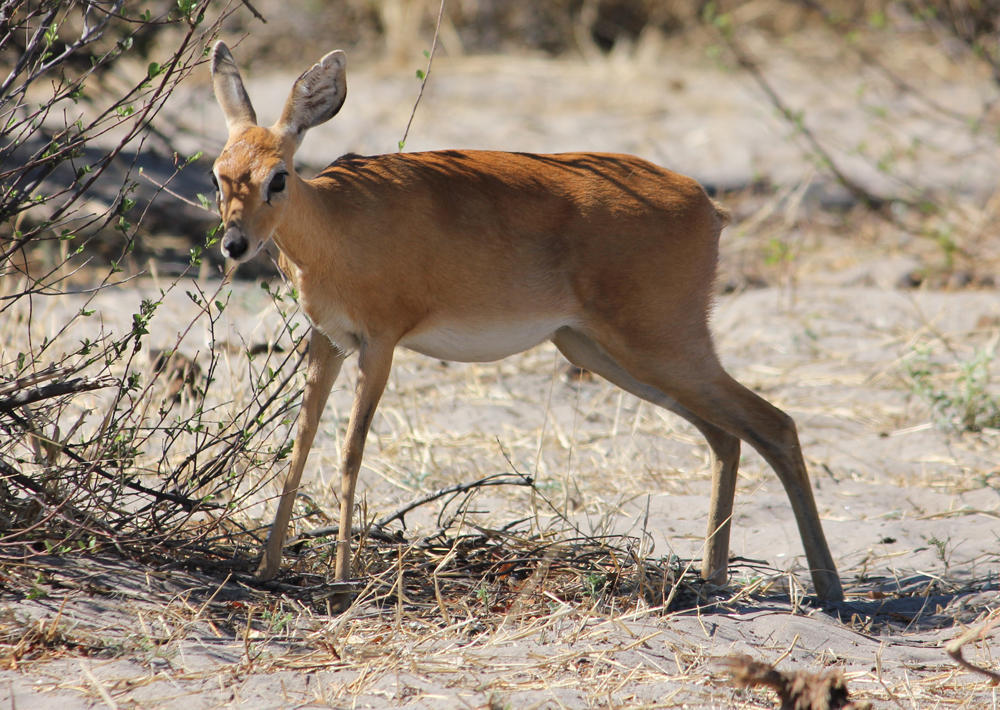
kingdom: Animalia
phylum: Chordata
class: Mammalia
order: Artiodactyla
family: Bovidae
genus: Raphicerus
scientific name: Raphicerus campestris
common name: Steenbok
